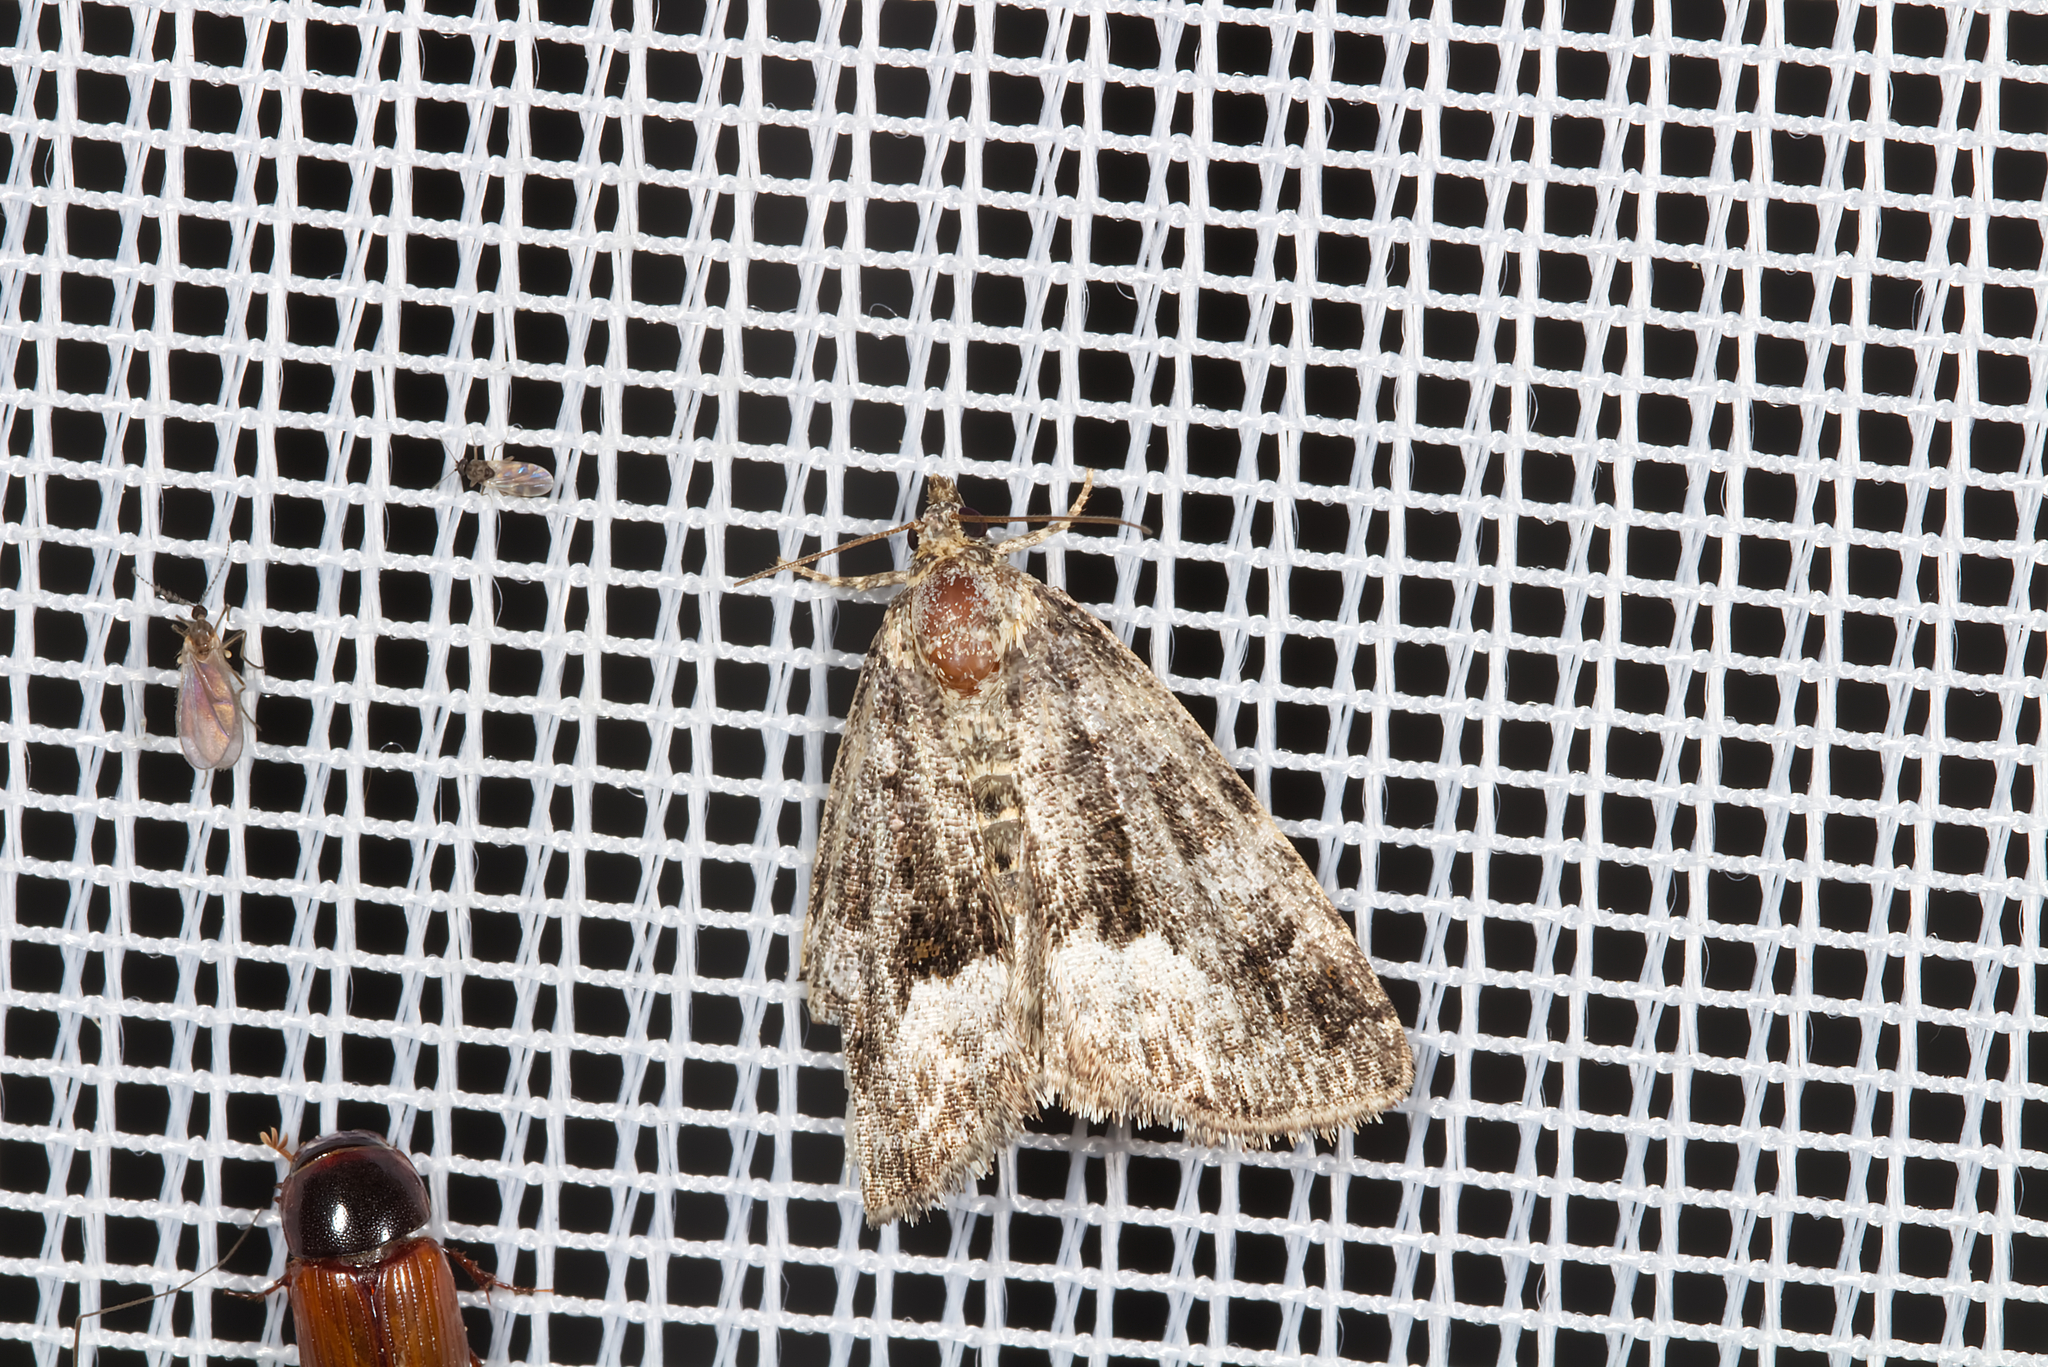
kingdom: Animalia
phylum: Arthropoda
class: Insecta
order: Lepidoptera
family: Noctuidae
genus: Deltote
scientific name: Deltote pygarga
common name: Marbled white spot
